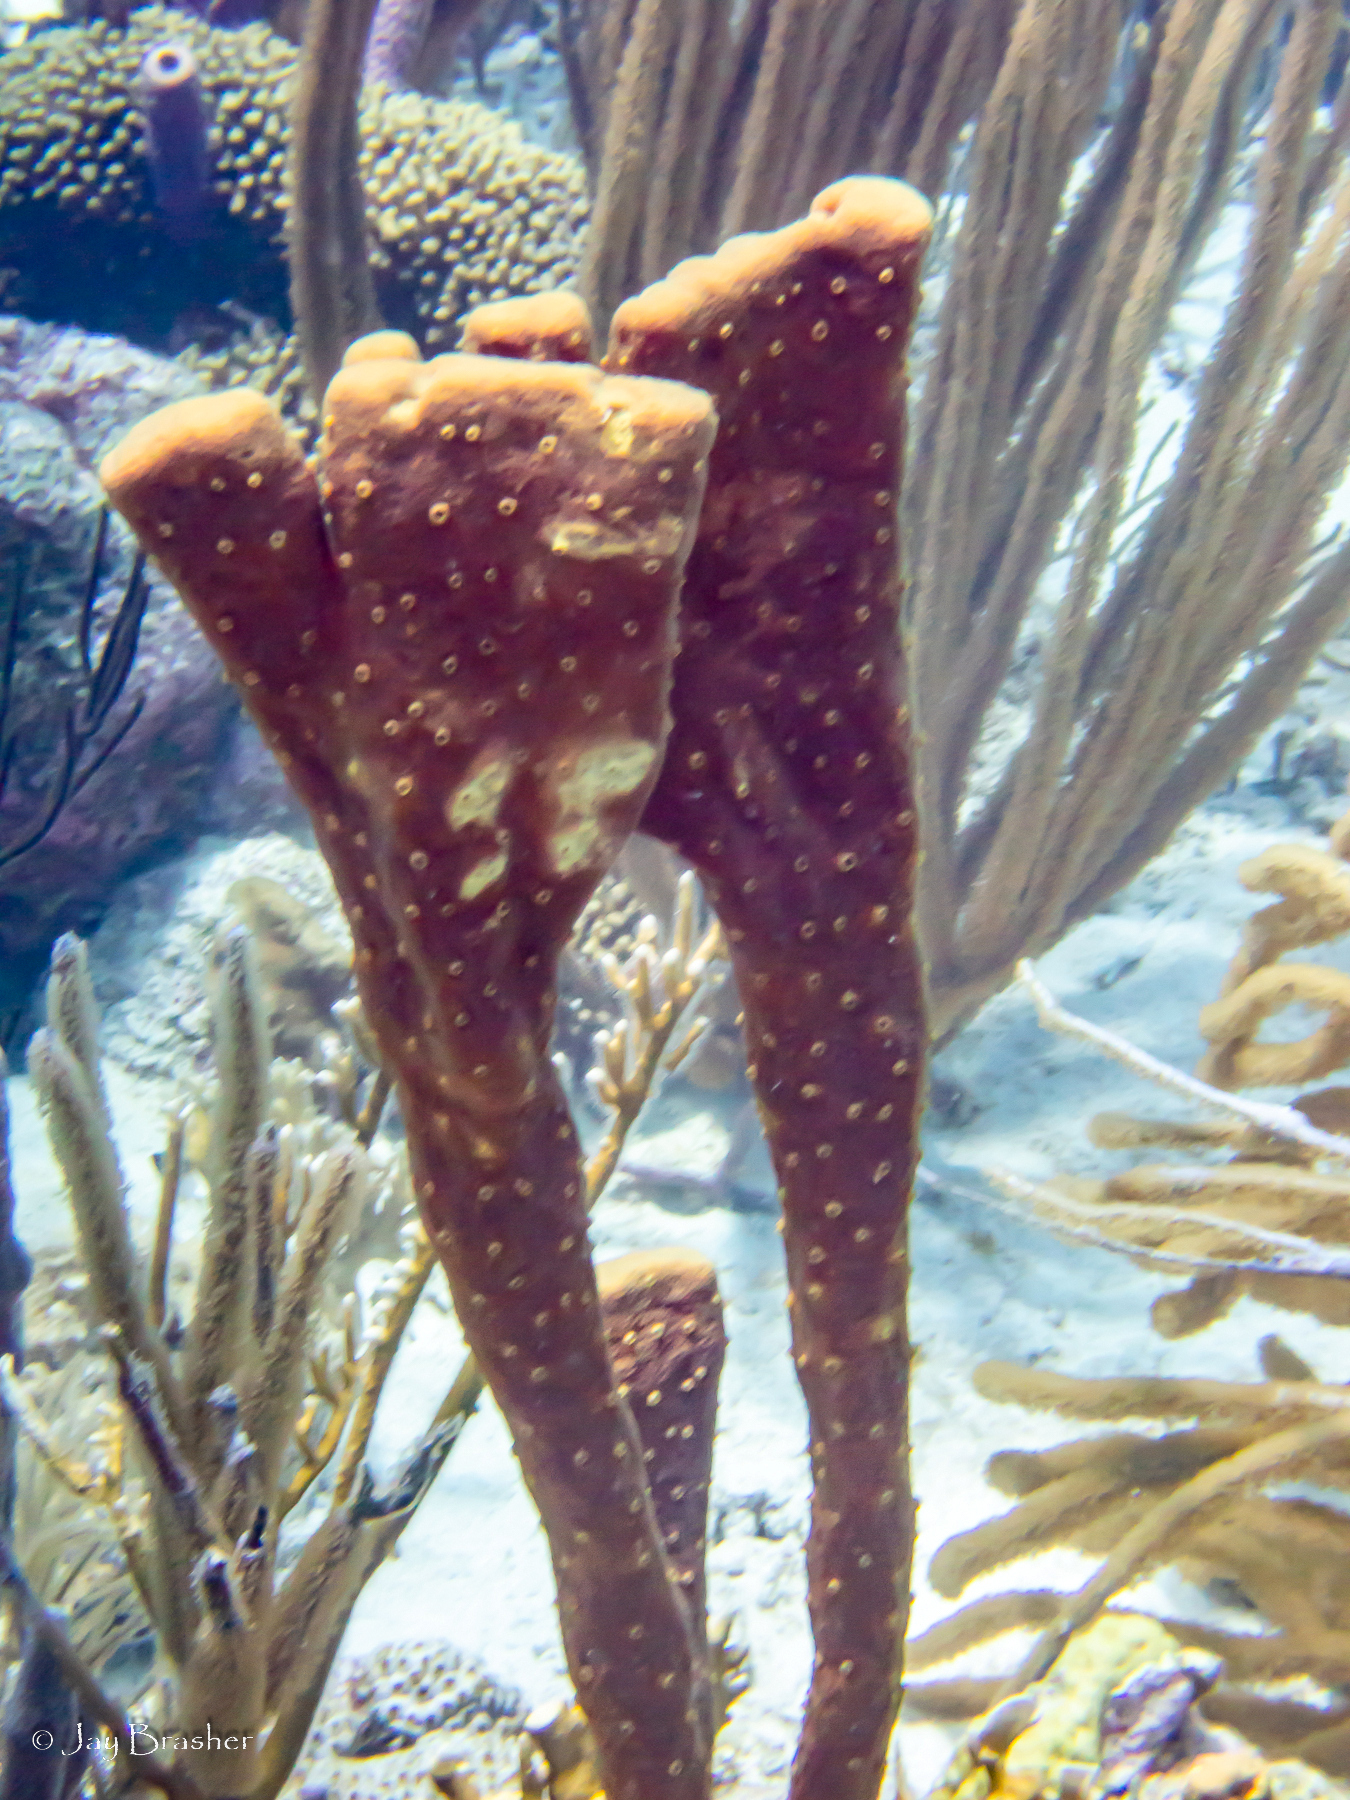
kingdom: Animalia
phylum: Porifera
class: Demospongiae
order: Verongiida
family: Aplysinidae
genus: Aplysina
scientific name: Aplysina cauliformis
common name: Branching candle sponge
